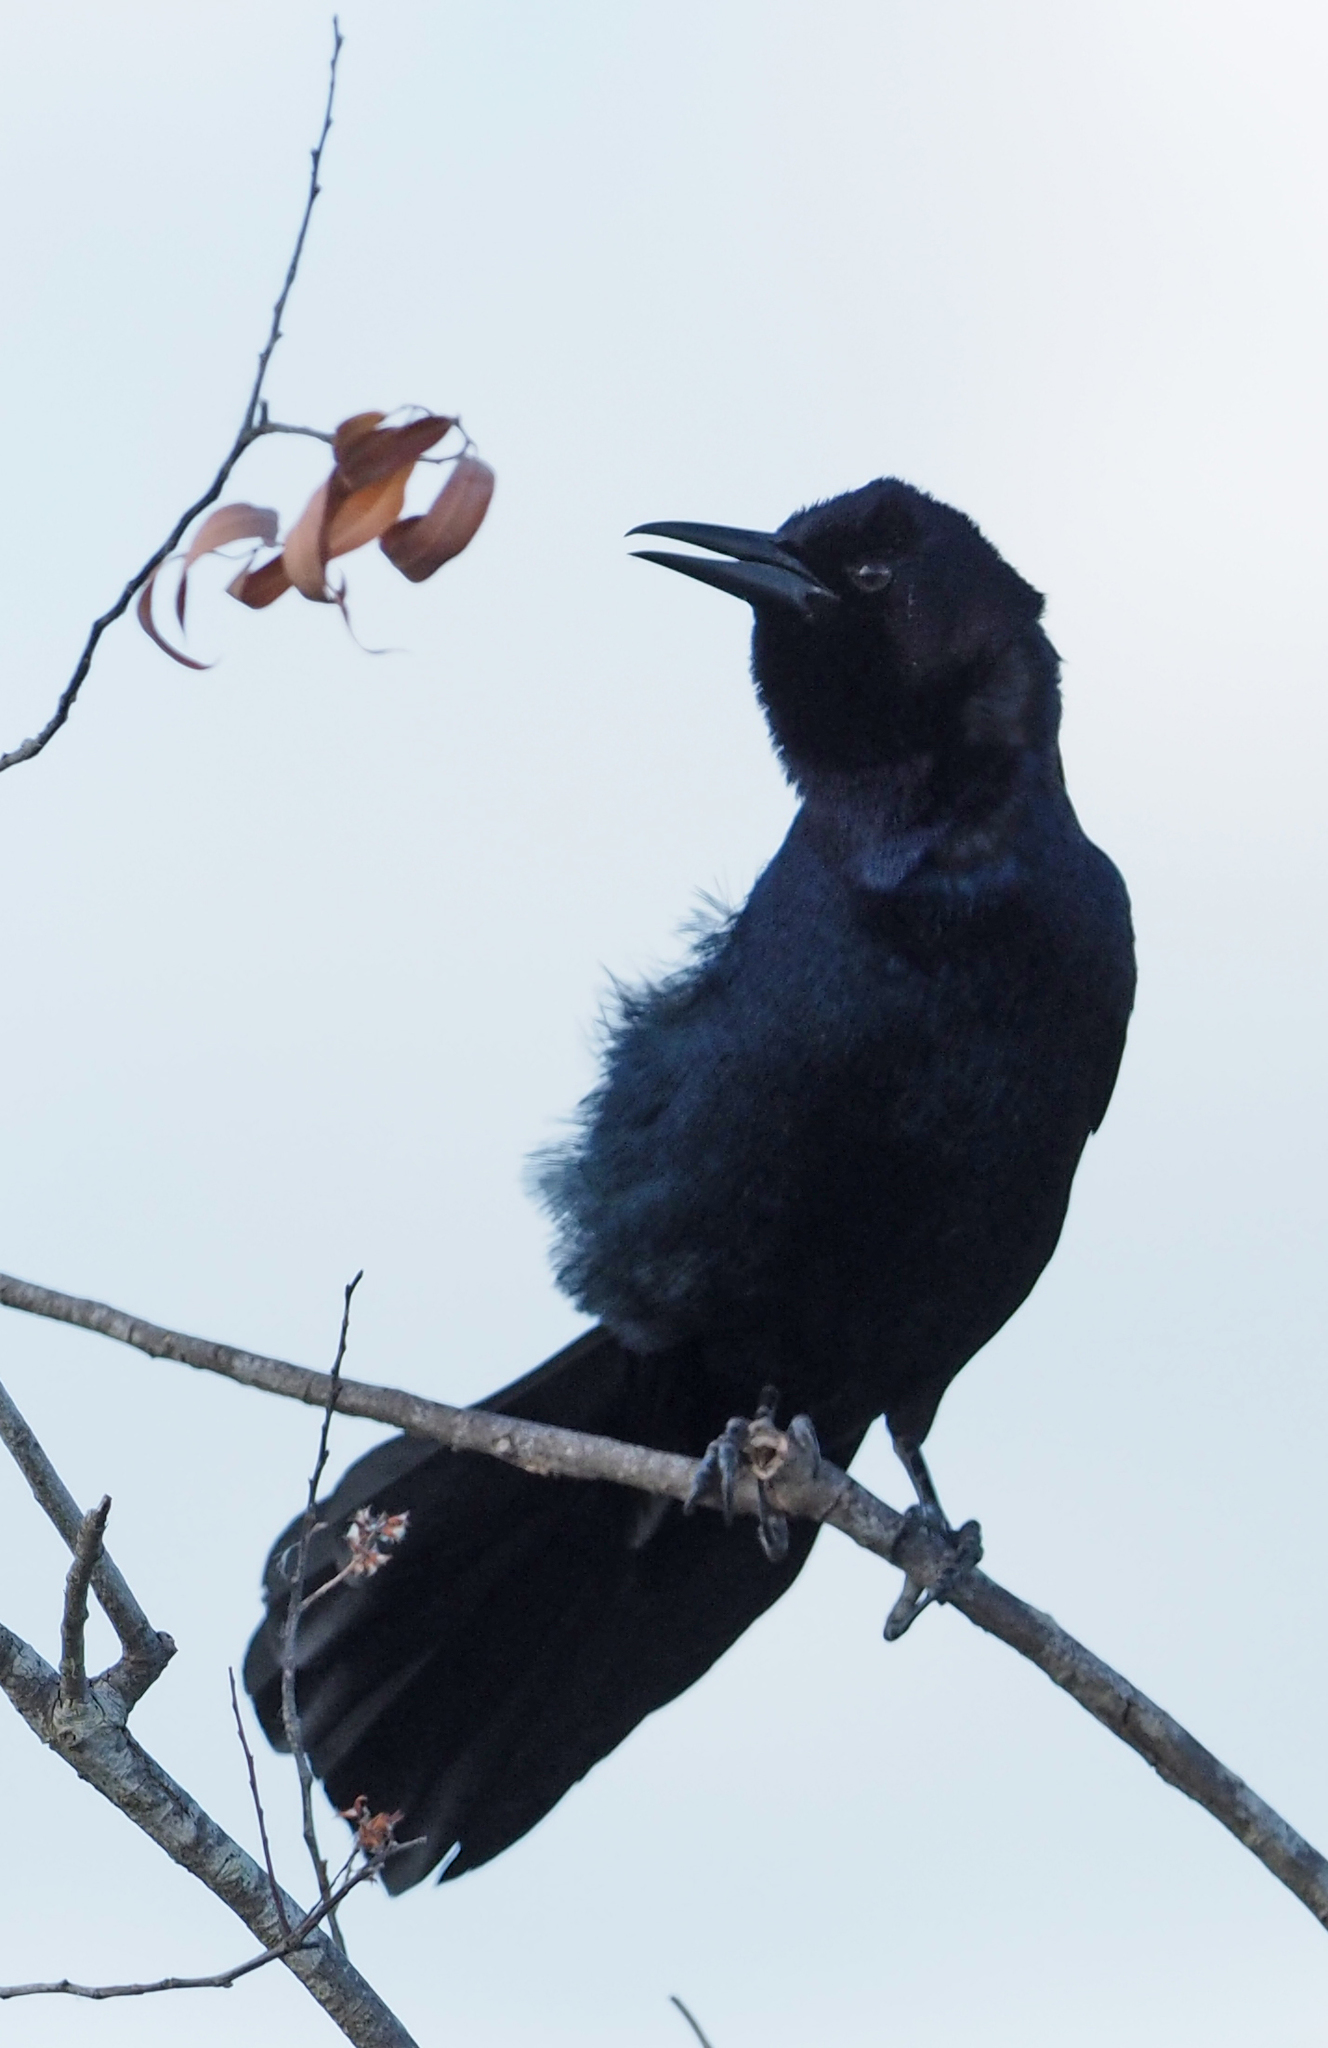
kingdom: Animalia
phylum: Chordata
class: Aves
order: Passeriformes
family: Icteridae
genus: Quiscalus
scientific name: Quiscalus major
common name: Boat-tailed grackle
